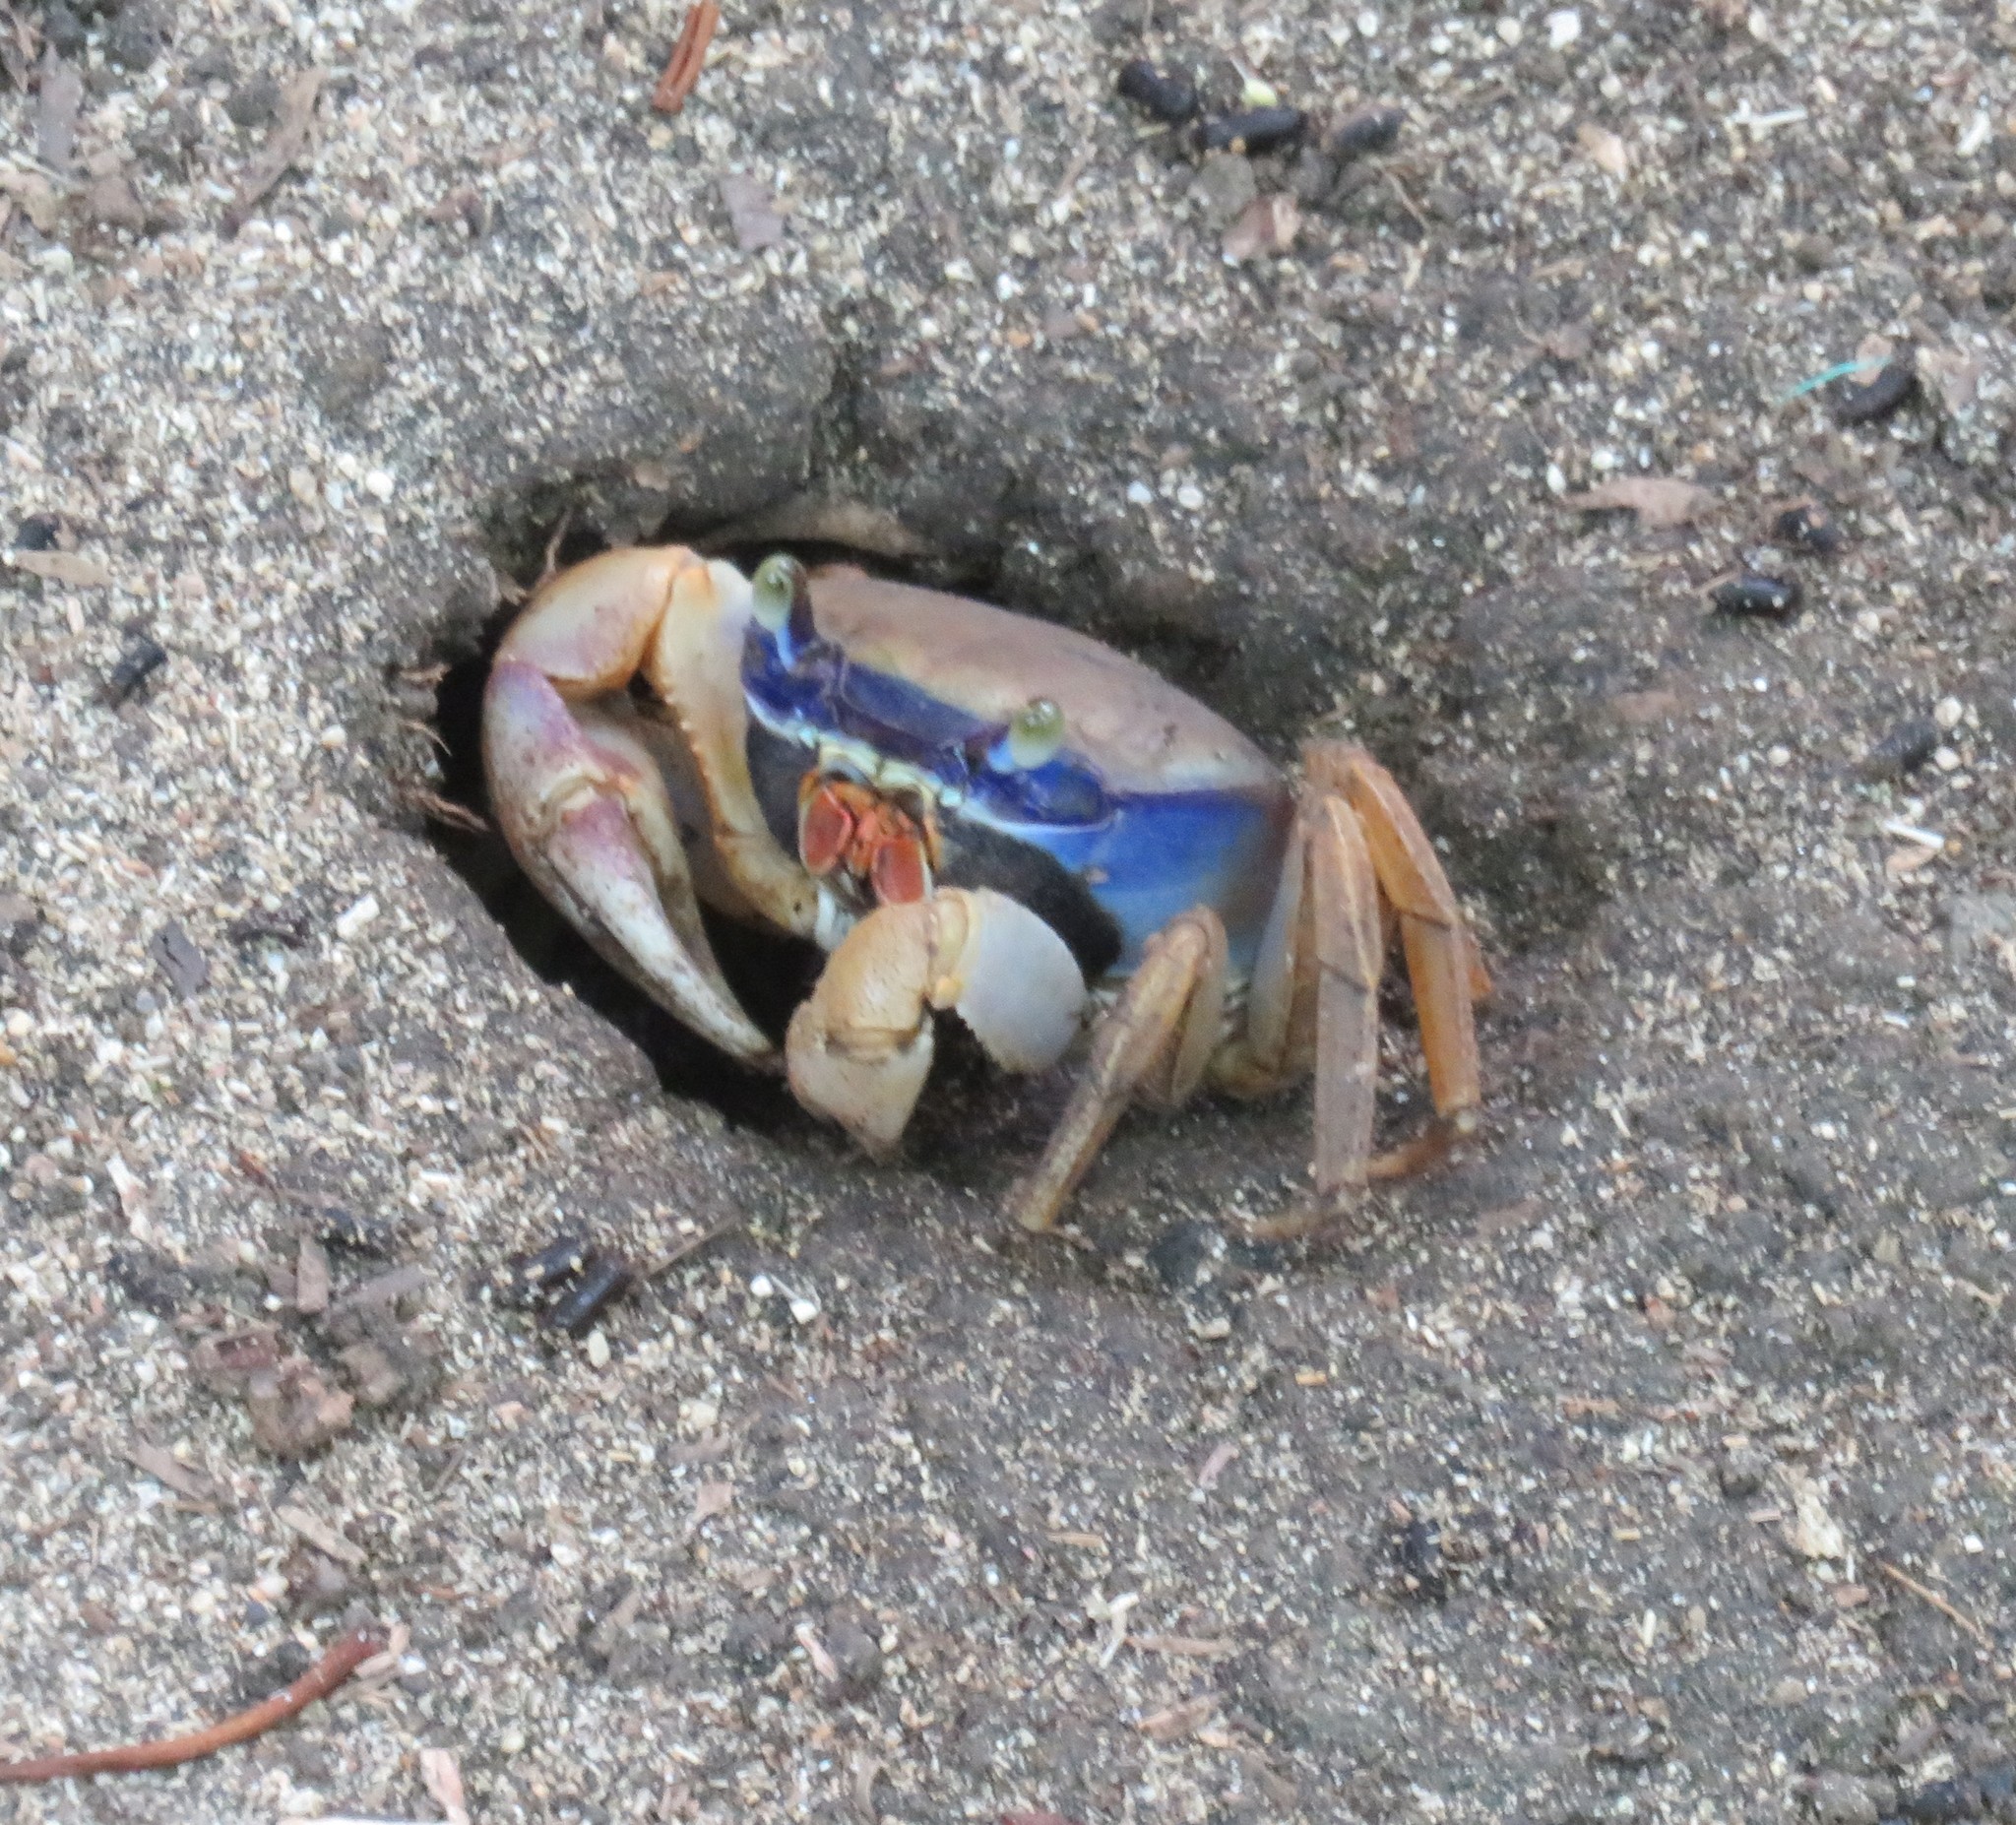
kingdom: Animalia
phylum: Arthropoda
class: Malacostraca
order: Decapoda
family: Gecarcinidae
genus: Cardisoma
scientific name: Cardisoma guanhumi
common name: Great land crab
